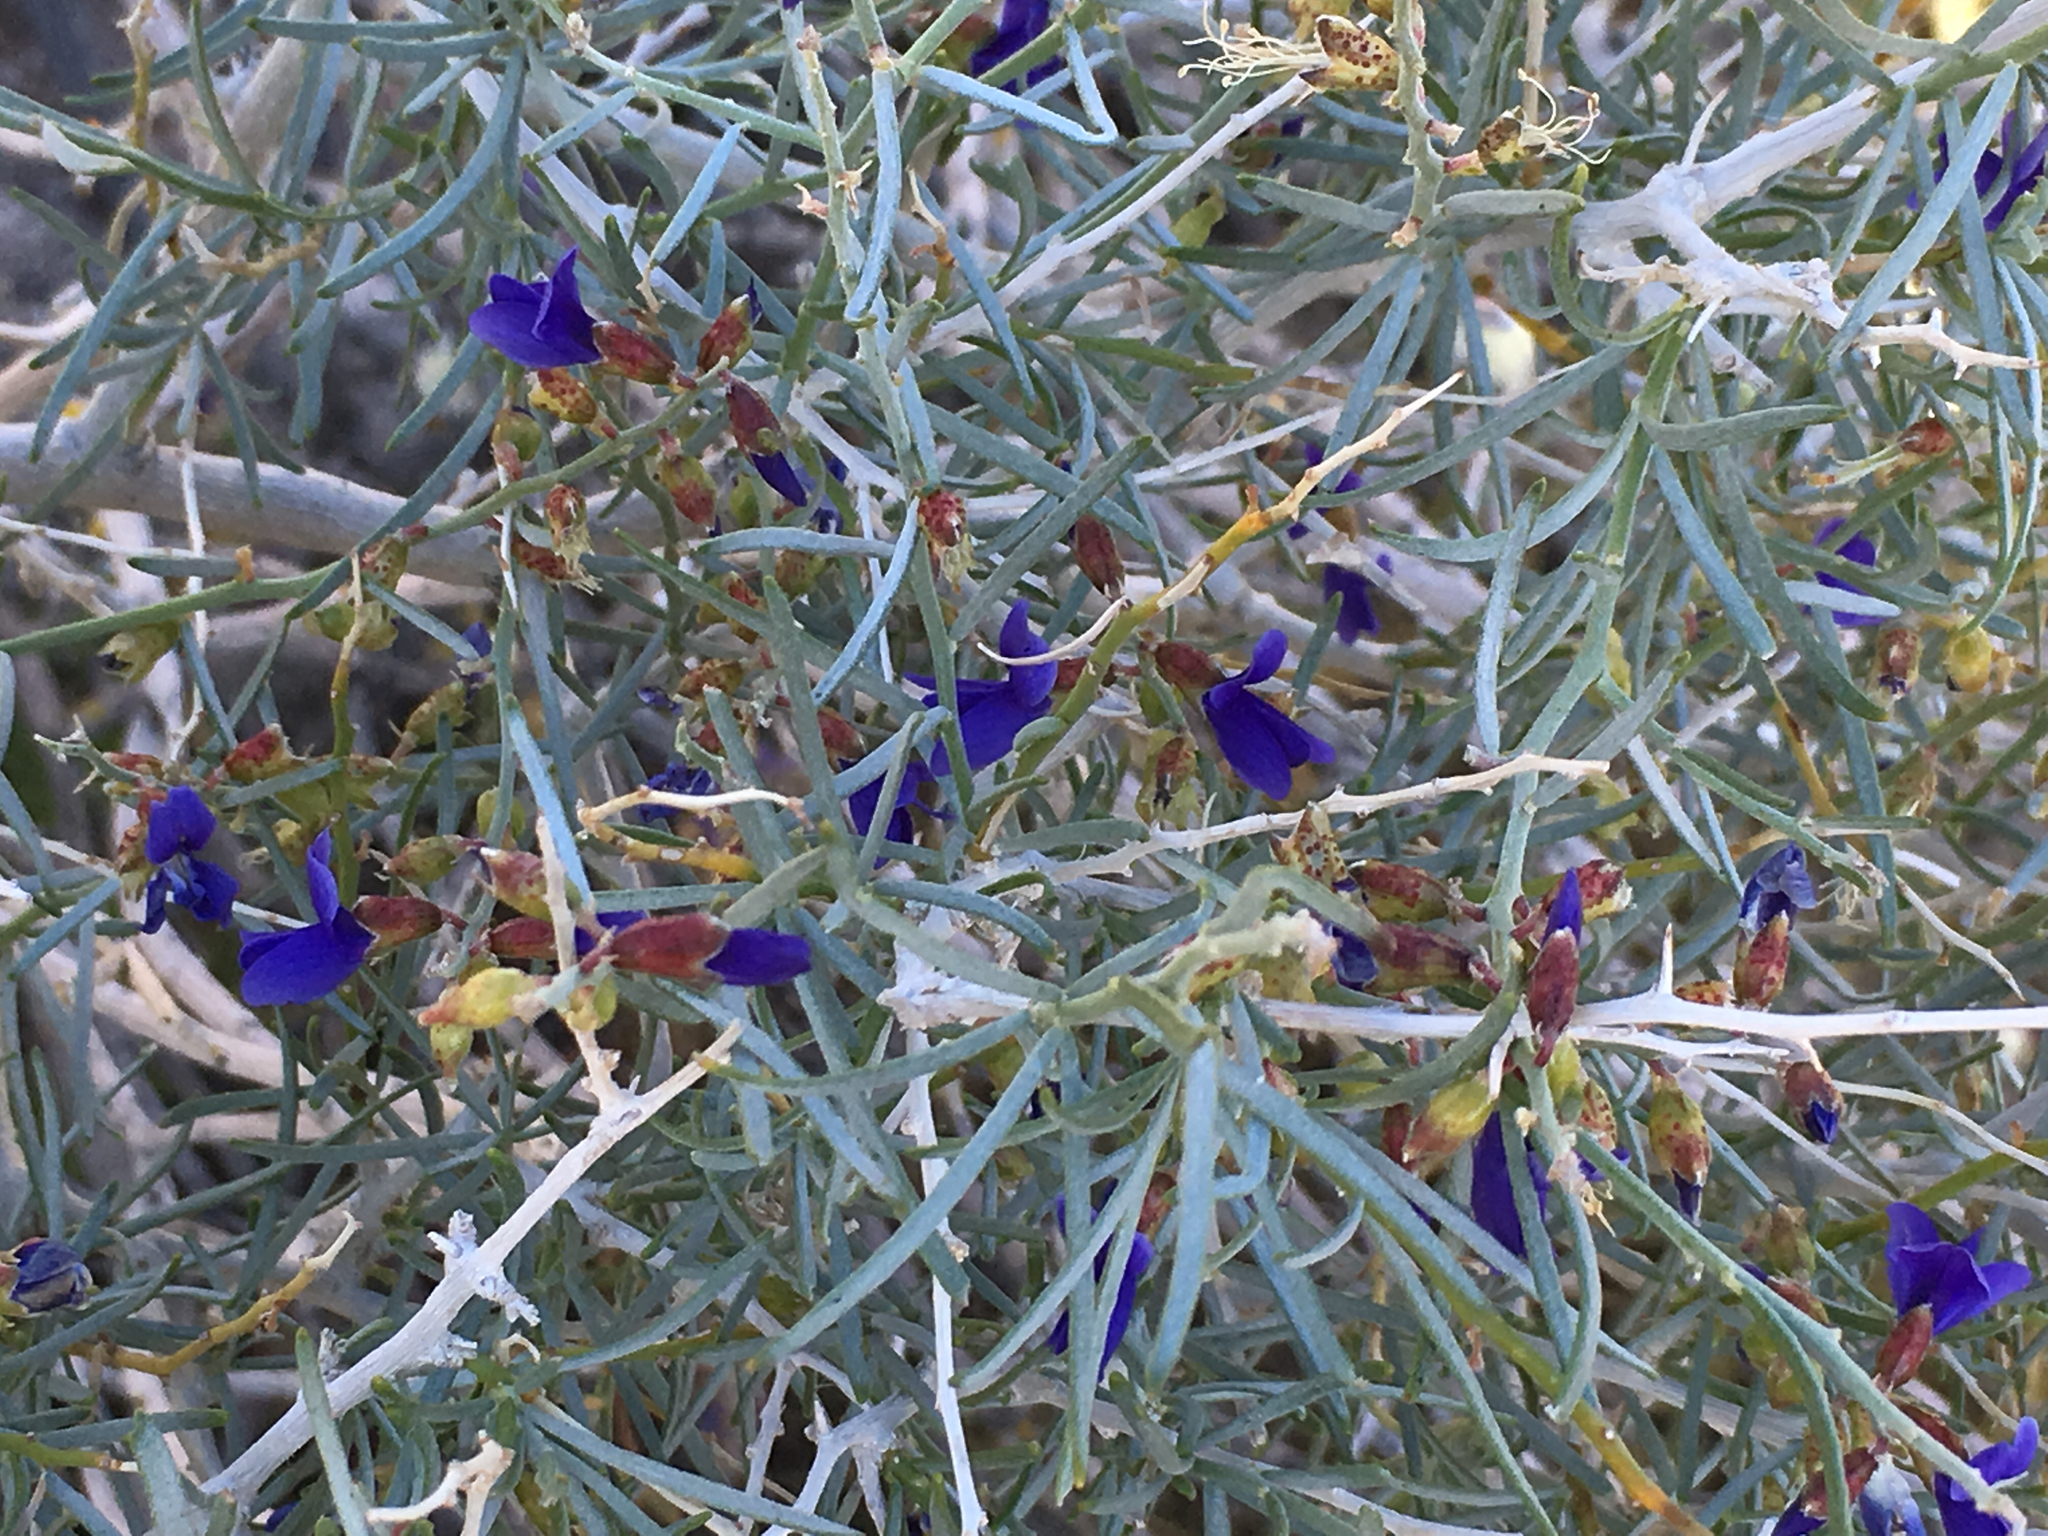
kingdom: Plantae
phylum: Tracheophyta
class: Magnoliopsida
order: Fabales
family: Fabaceae
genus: Psorothamnus
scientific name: Psorothamnus schottii
